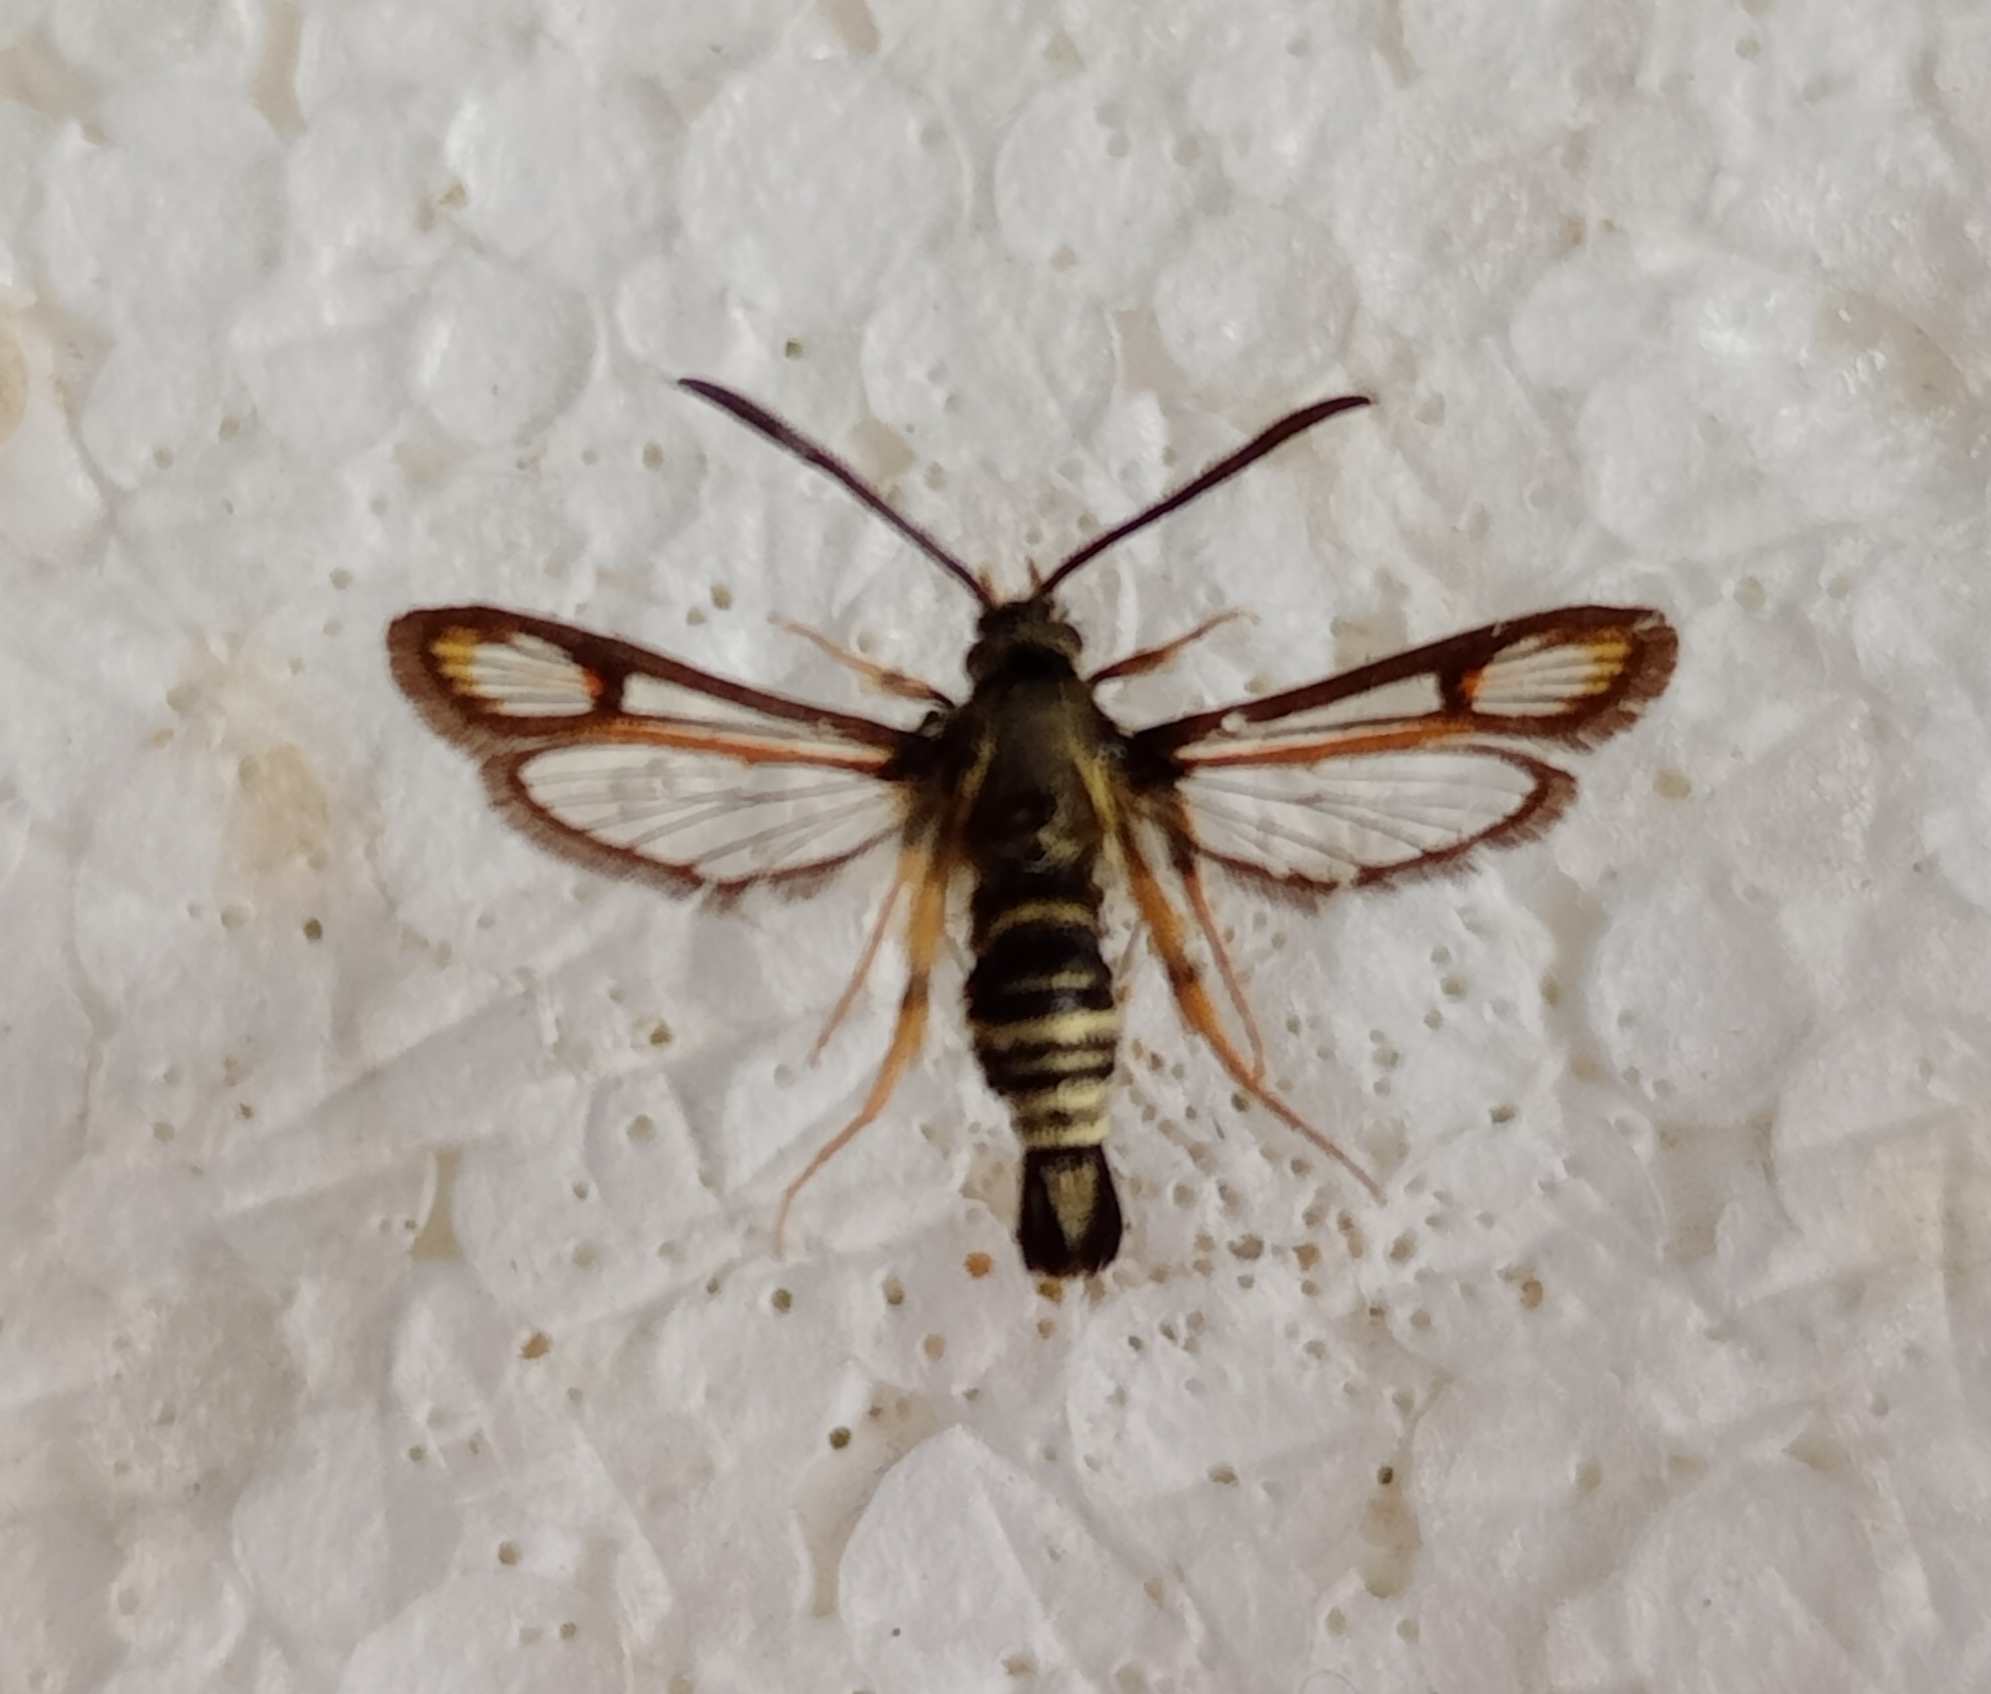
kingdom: Animalia
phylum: Arthropoda
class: Insecta
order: Lepidoptera
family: Sesiidae
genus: Bembecia
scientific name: Bembecia scopigera
